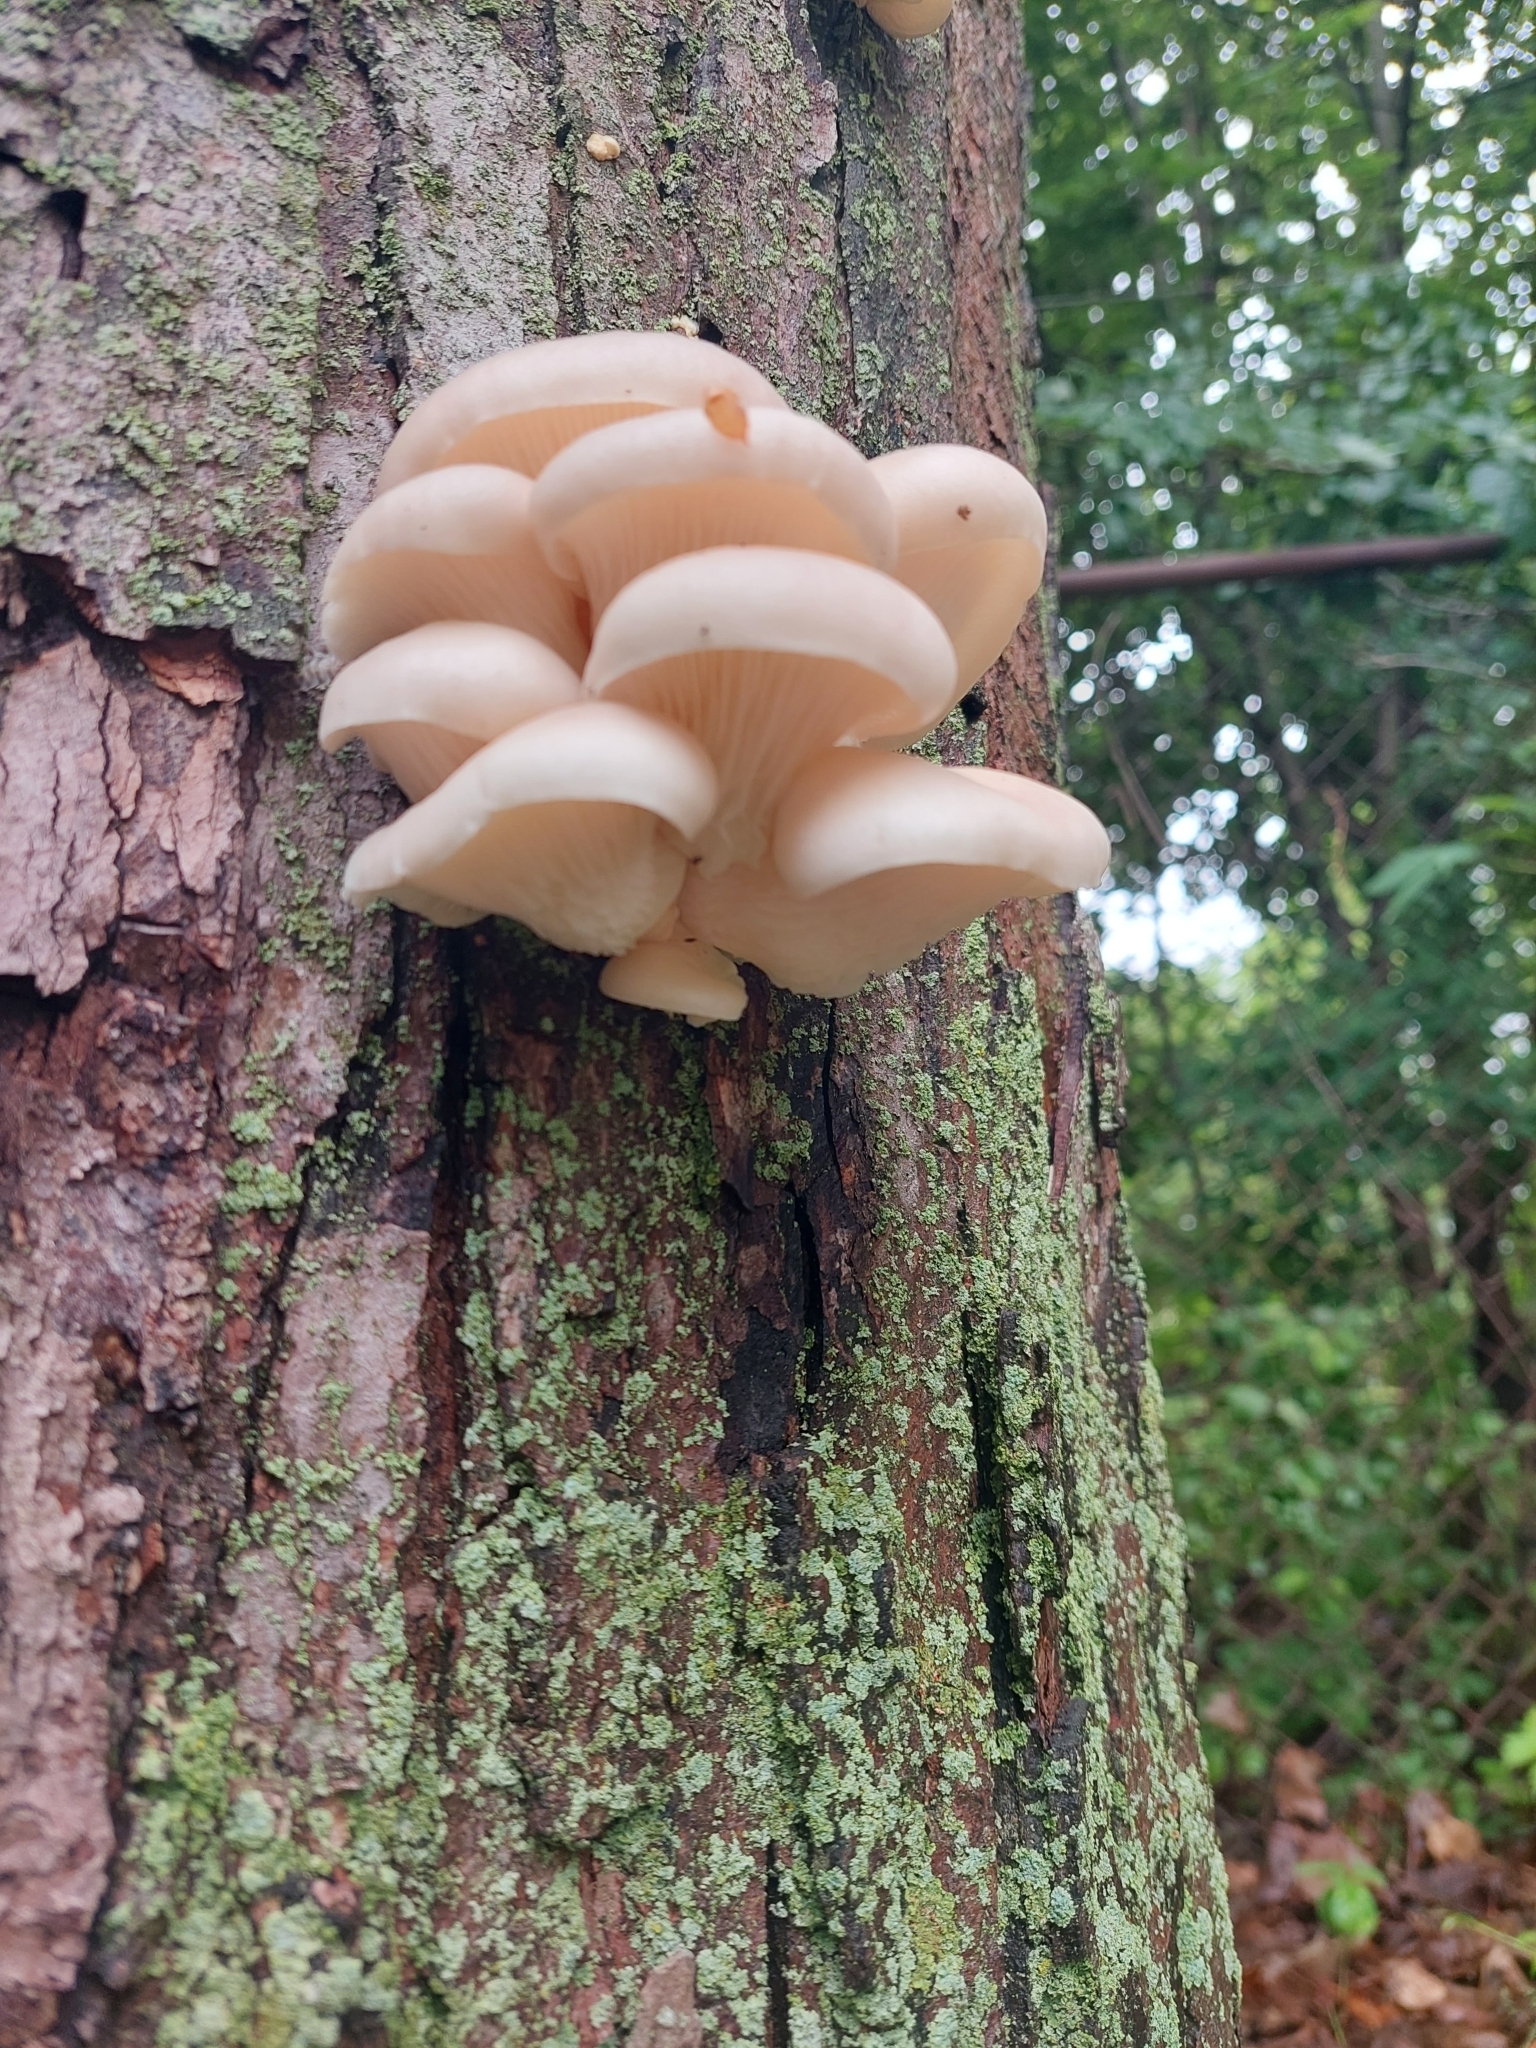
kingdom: Fungi
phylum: Basidiomycota
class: Agaricomycetes
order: Agaricales
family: Pleurotaceae
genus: Pleurotus
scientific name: Pleurotus pulmonarius
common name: Pale oyster
